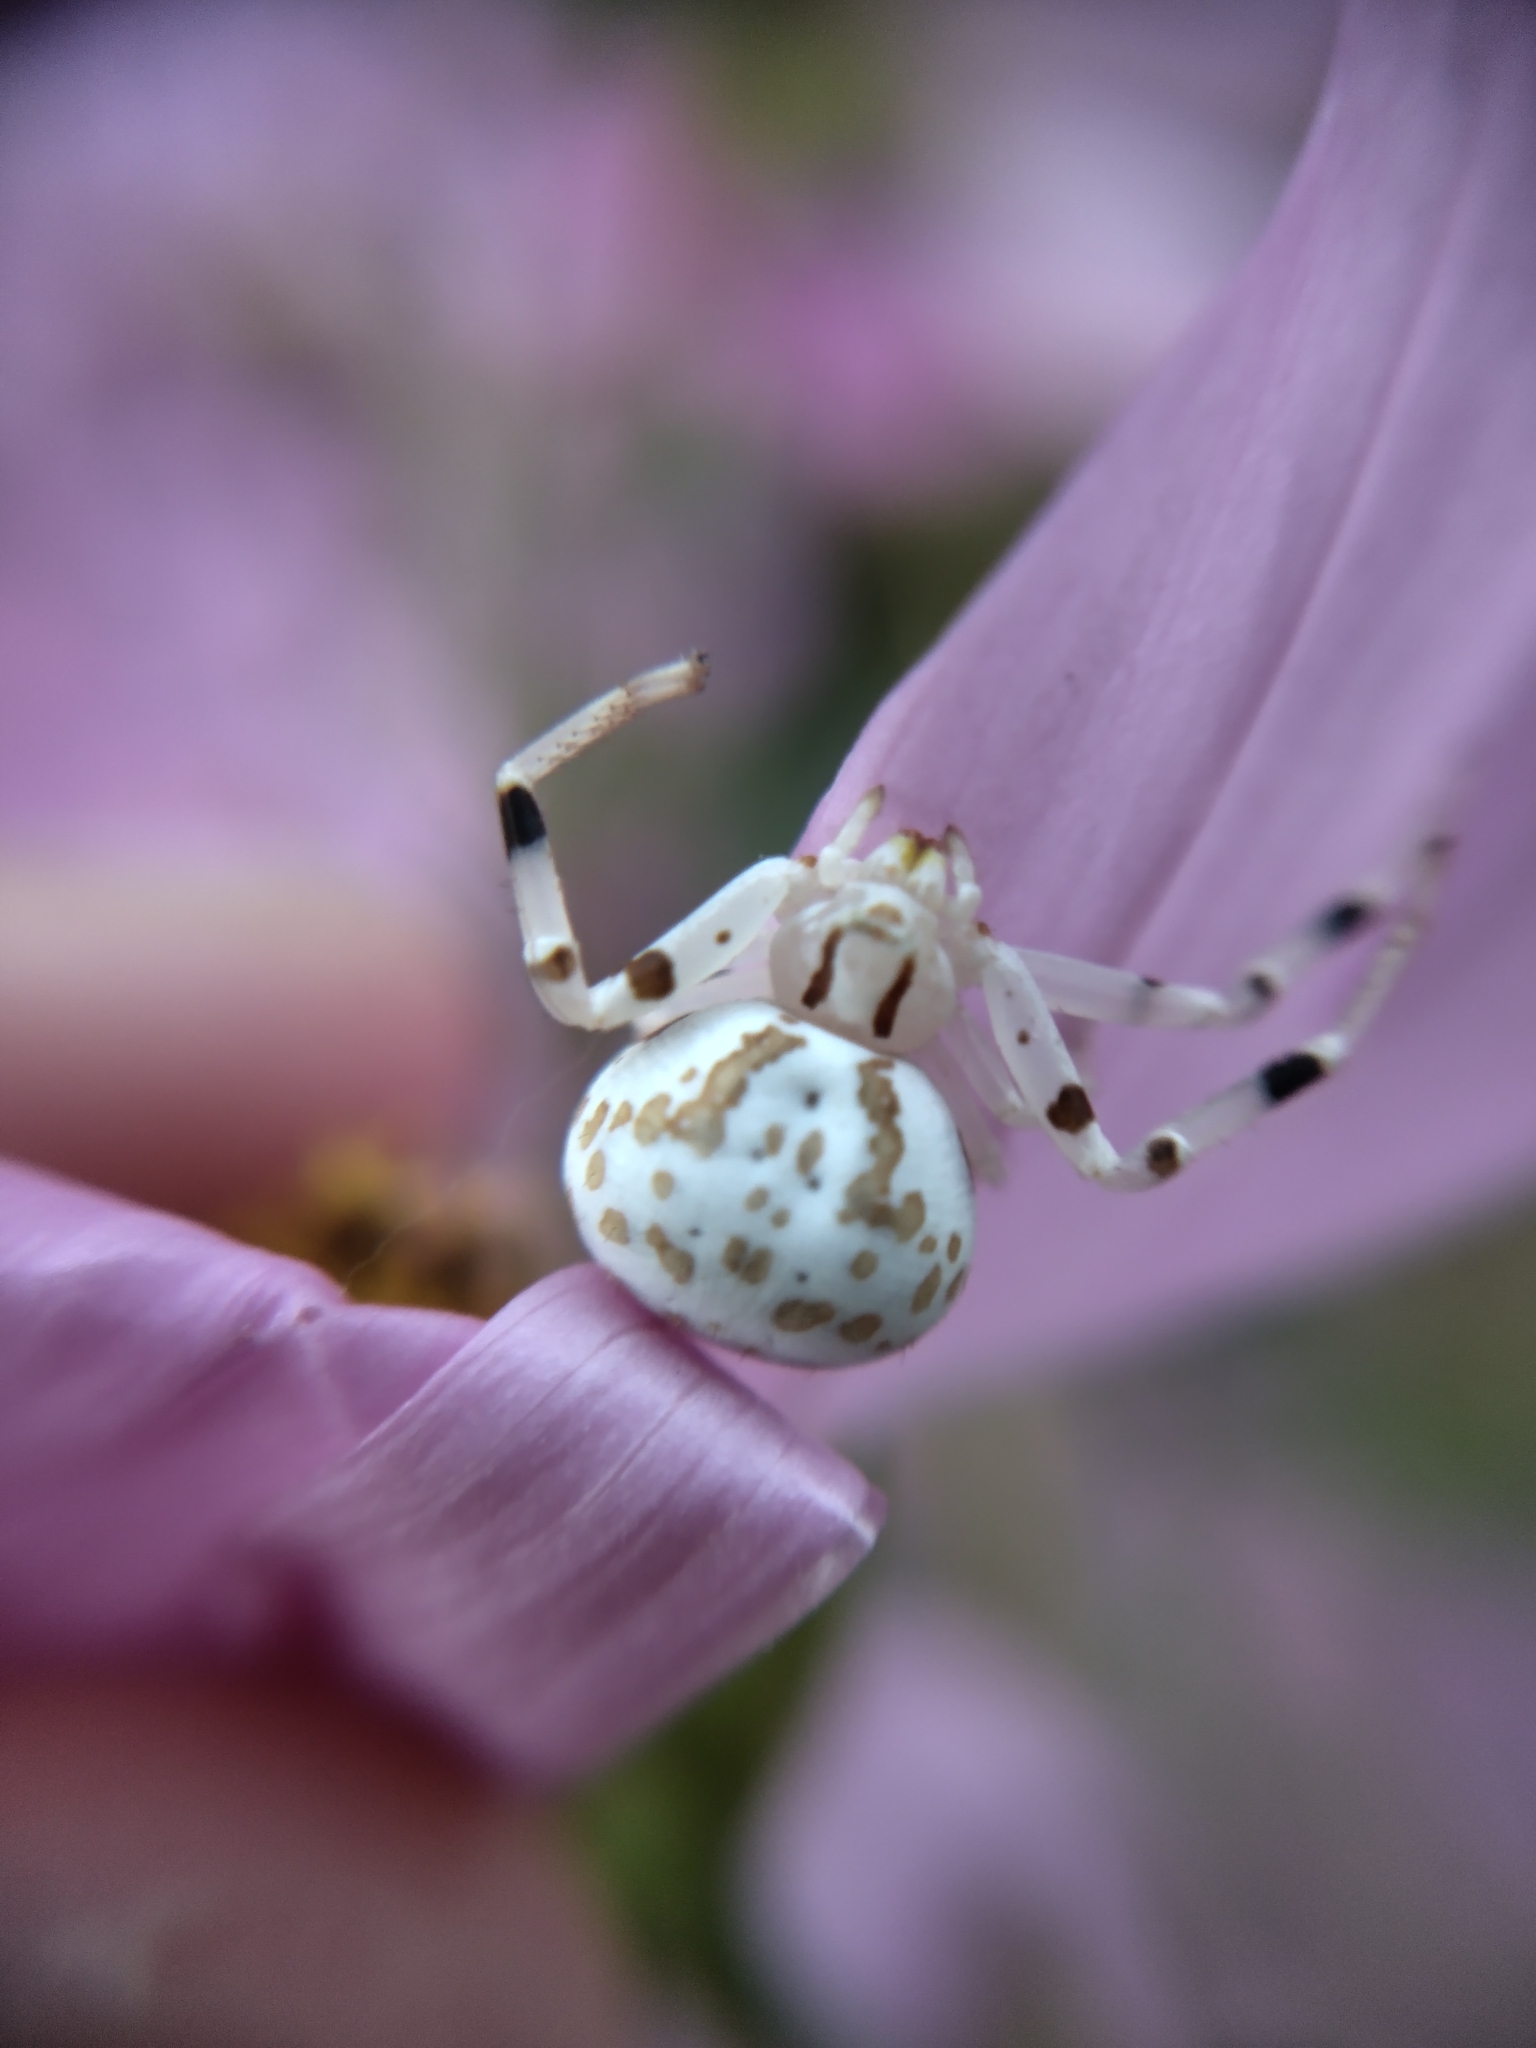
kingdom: Animalia
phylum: Arthropoda
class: Arachnida
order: Araneae
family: Thomisidae
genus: Zygometis
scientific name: Zygometis xanthogaster
